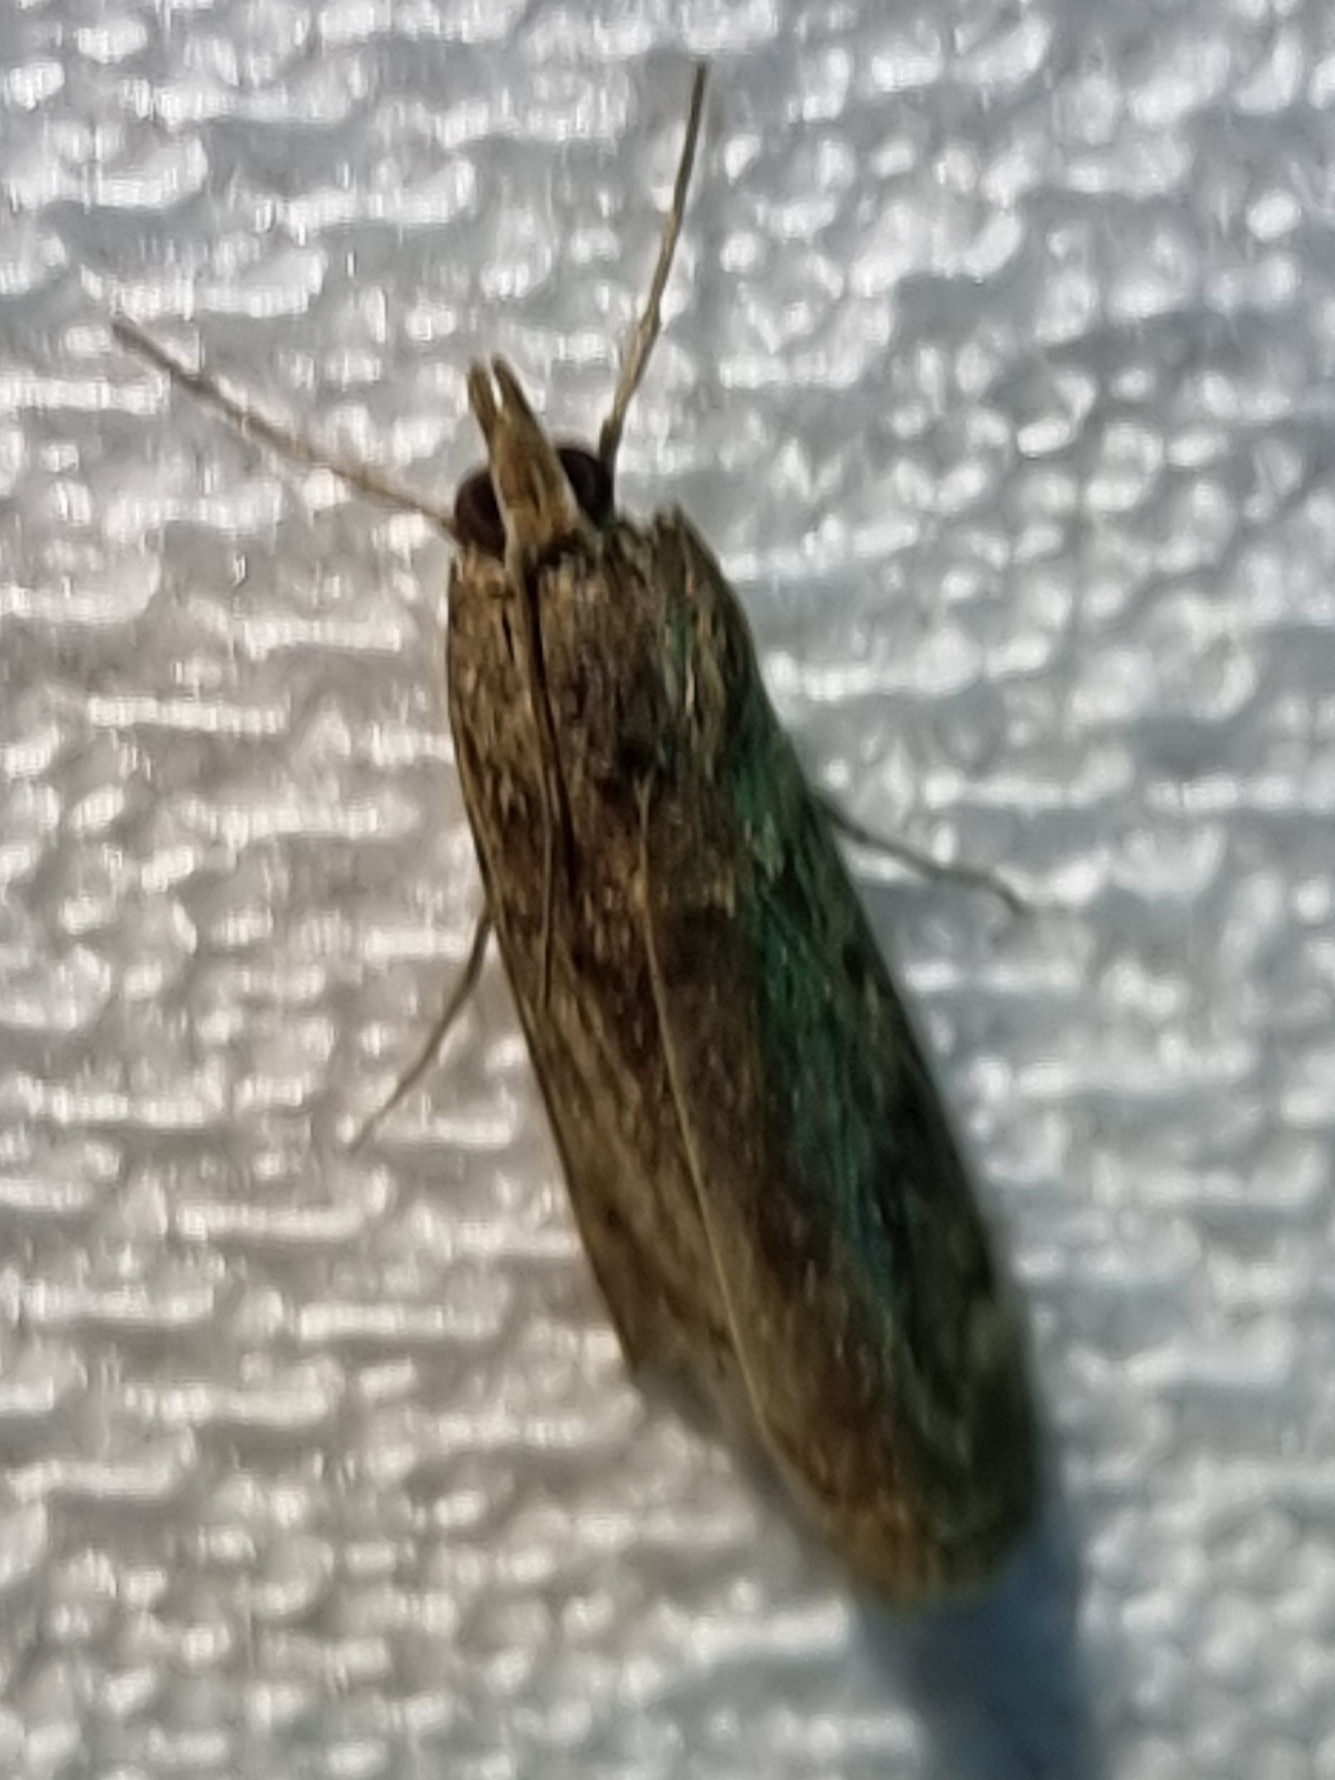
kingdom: Animalia
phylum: Arthropoda
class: Insecta
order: Lepidoptera
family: Crambidae
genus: Achyra
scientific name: Achyra affinitalis
